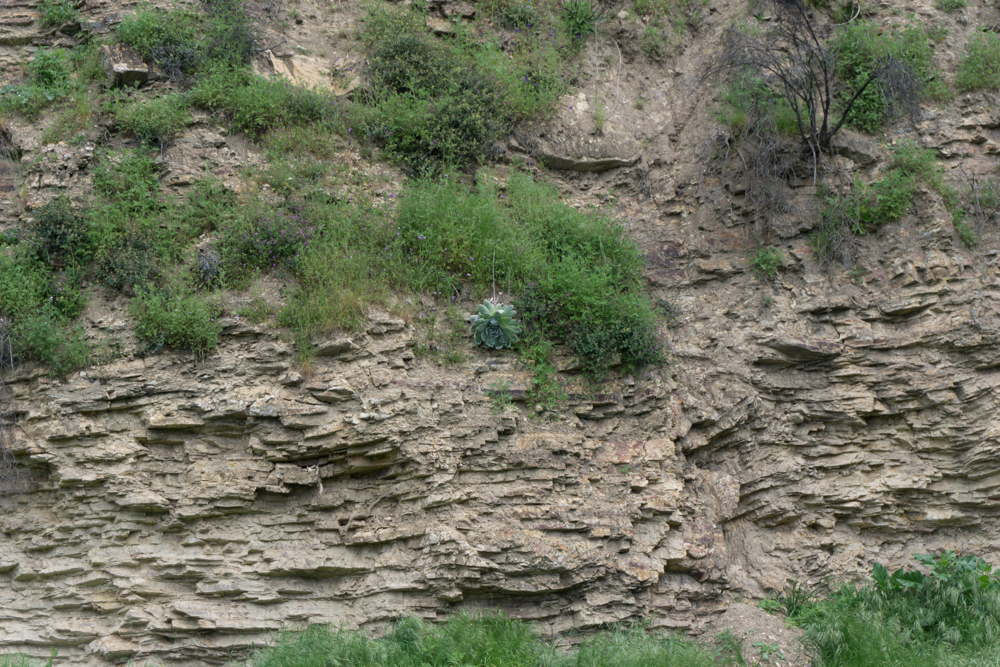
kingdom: Plantae
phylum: Tracheophyta
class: Magnoliopsida
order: Saxifragales
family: Crassulaceae
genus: Dudleya
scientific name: Dudleya pulverulenta
